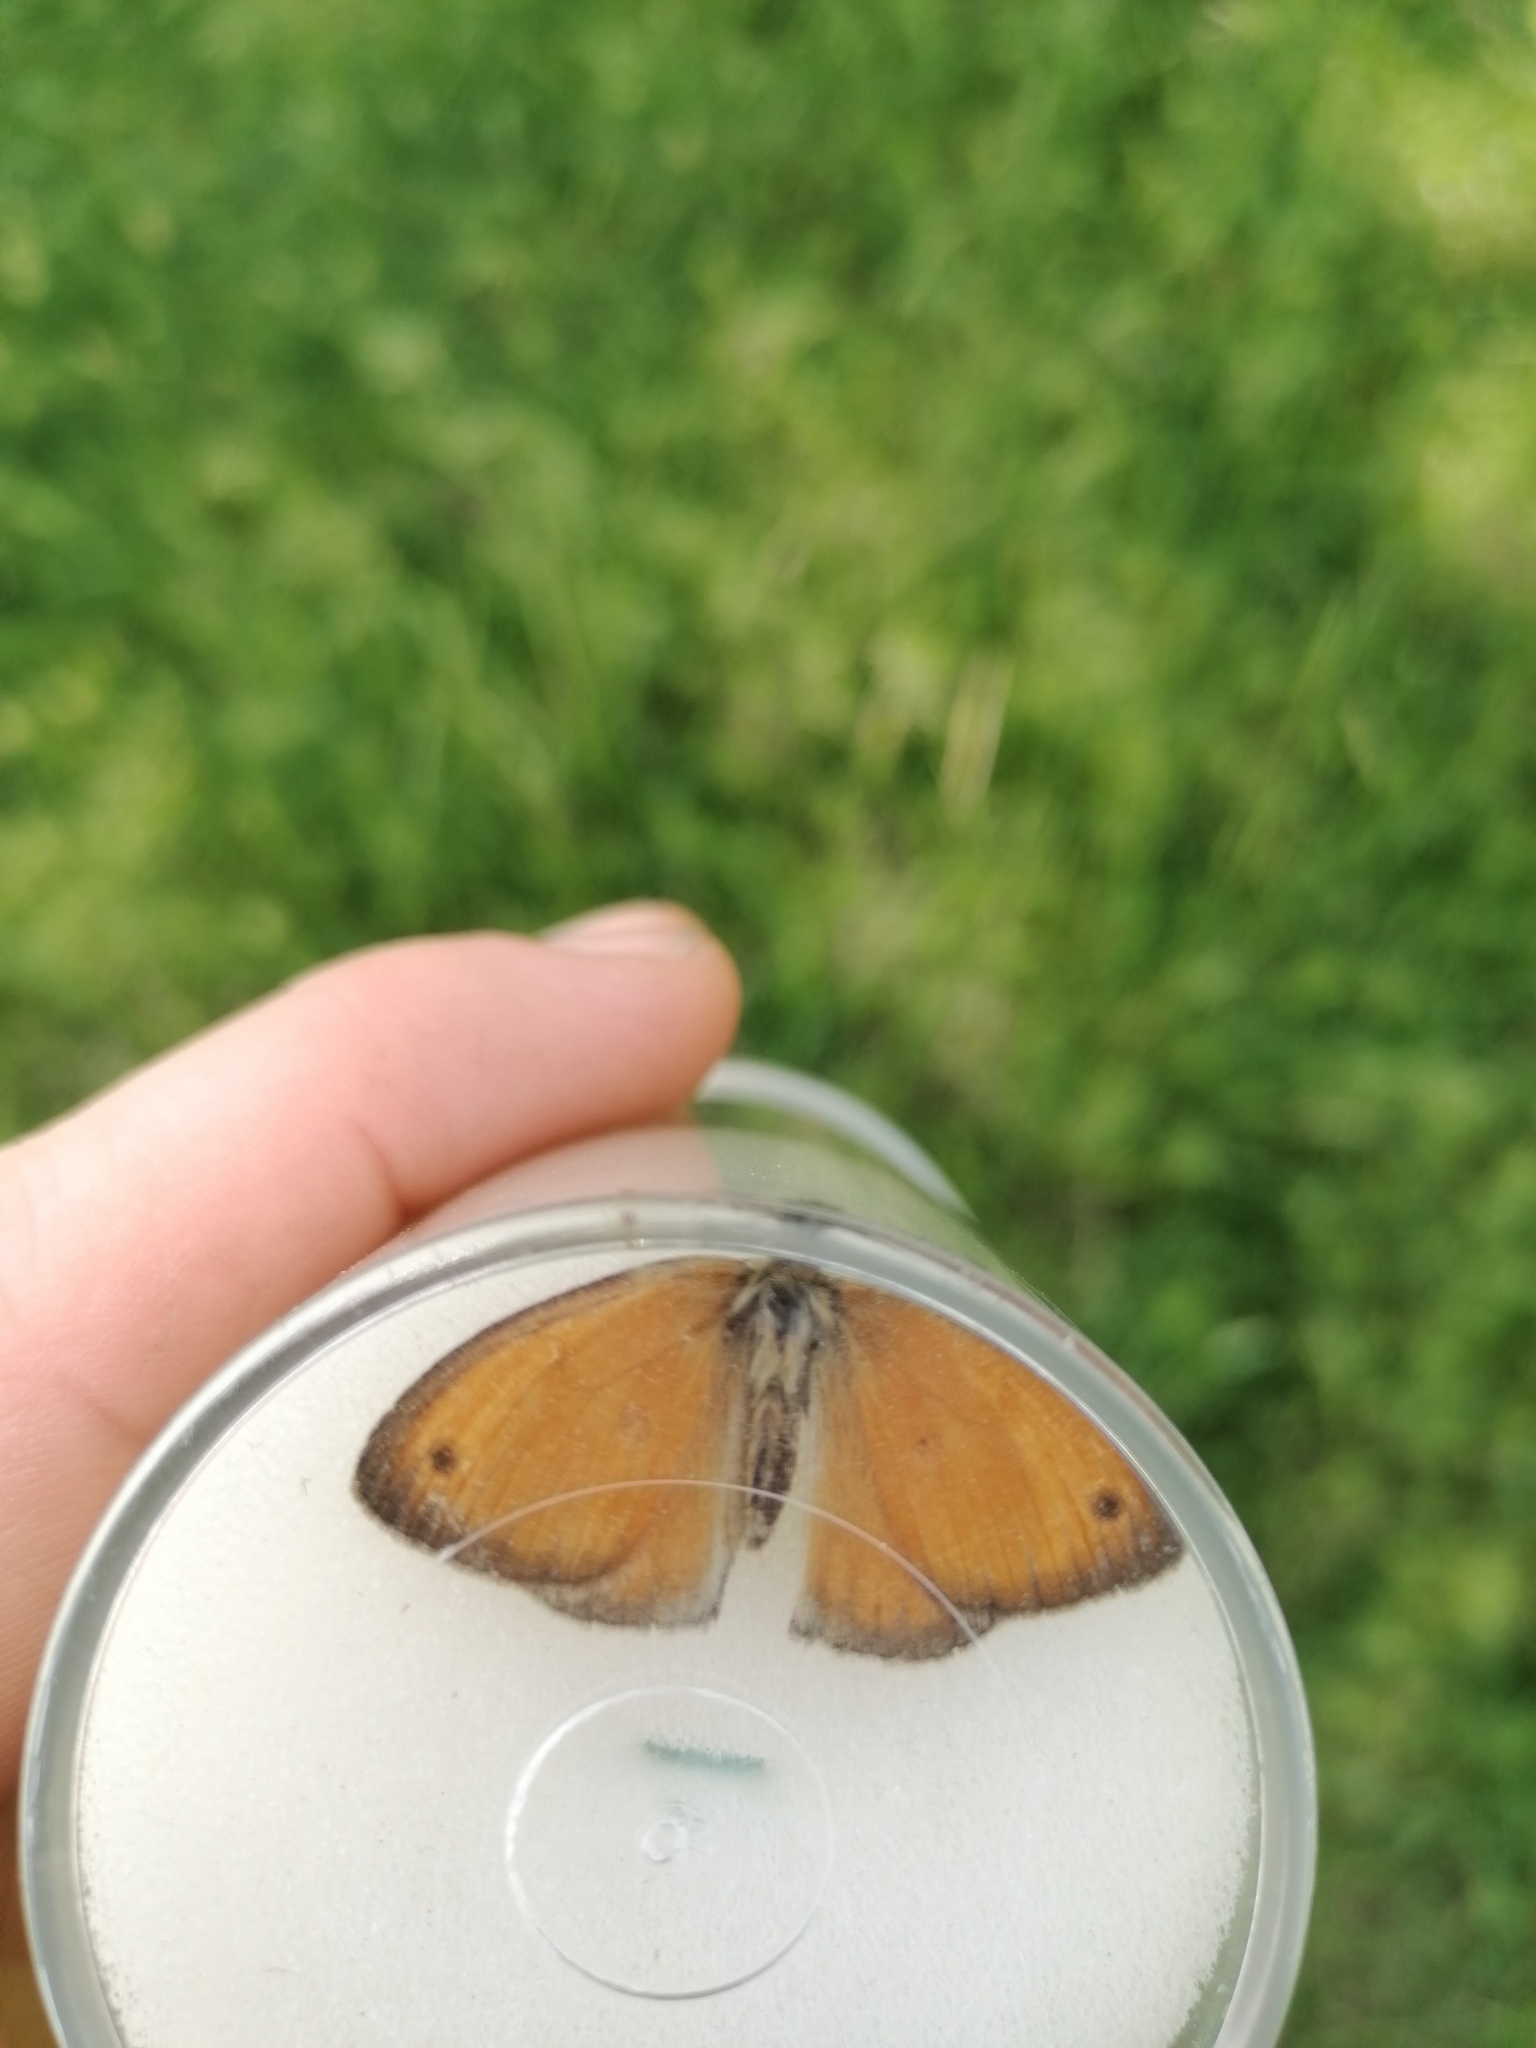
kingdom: Animalia
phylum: Arthropoda
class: Insecta
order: Lepidoptera
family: Nymphalidae
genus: Maniola
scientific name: Maniola jurtina
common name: Meadow brown
